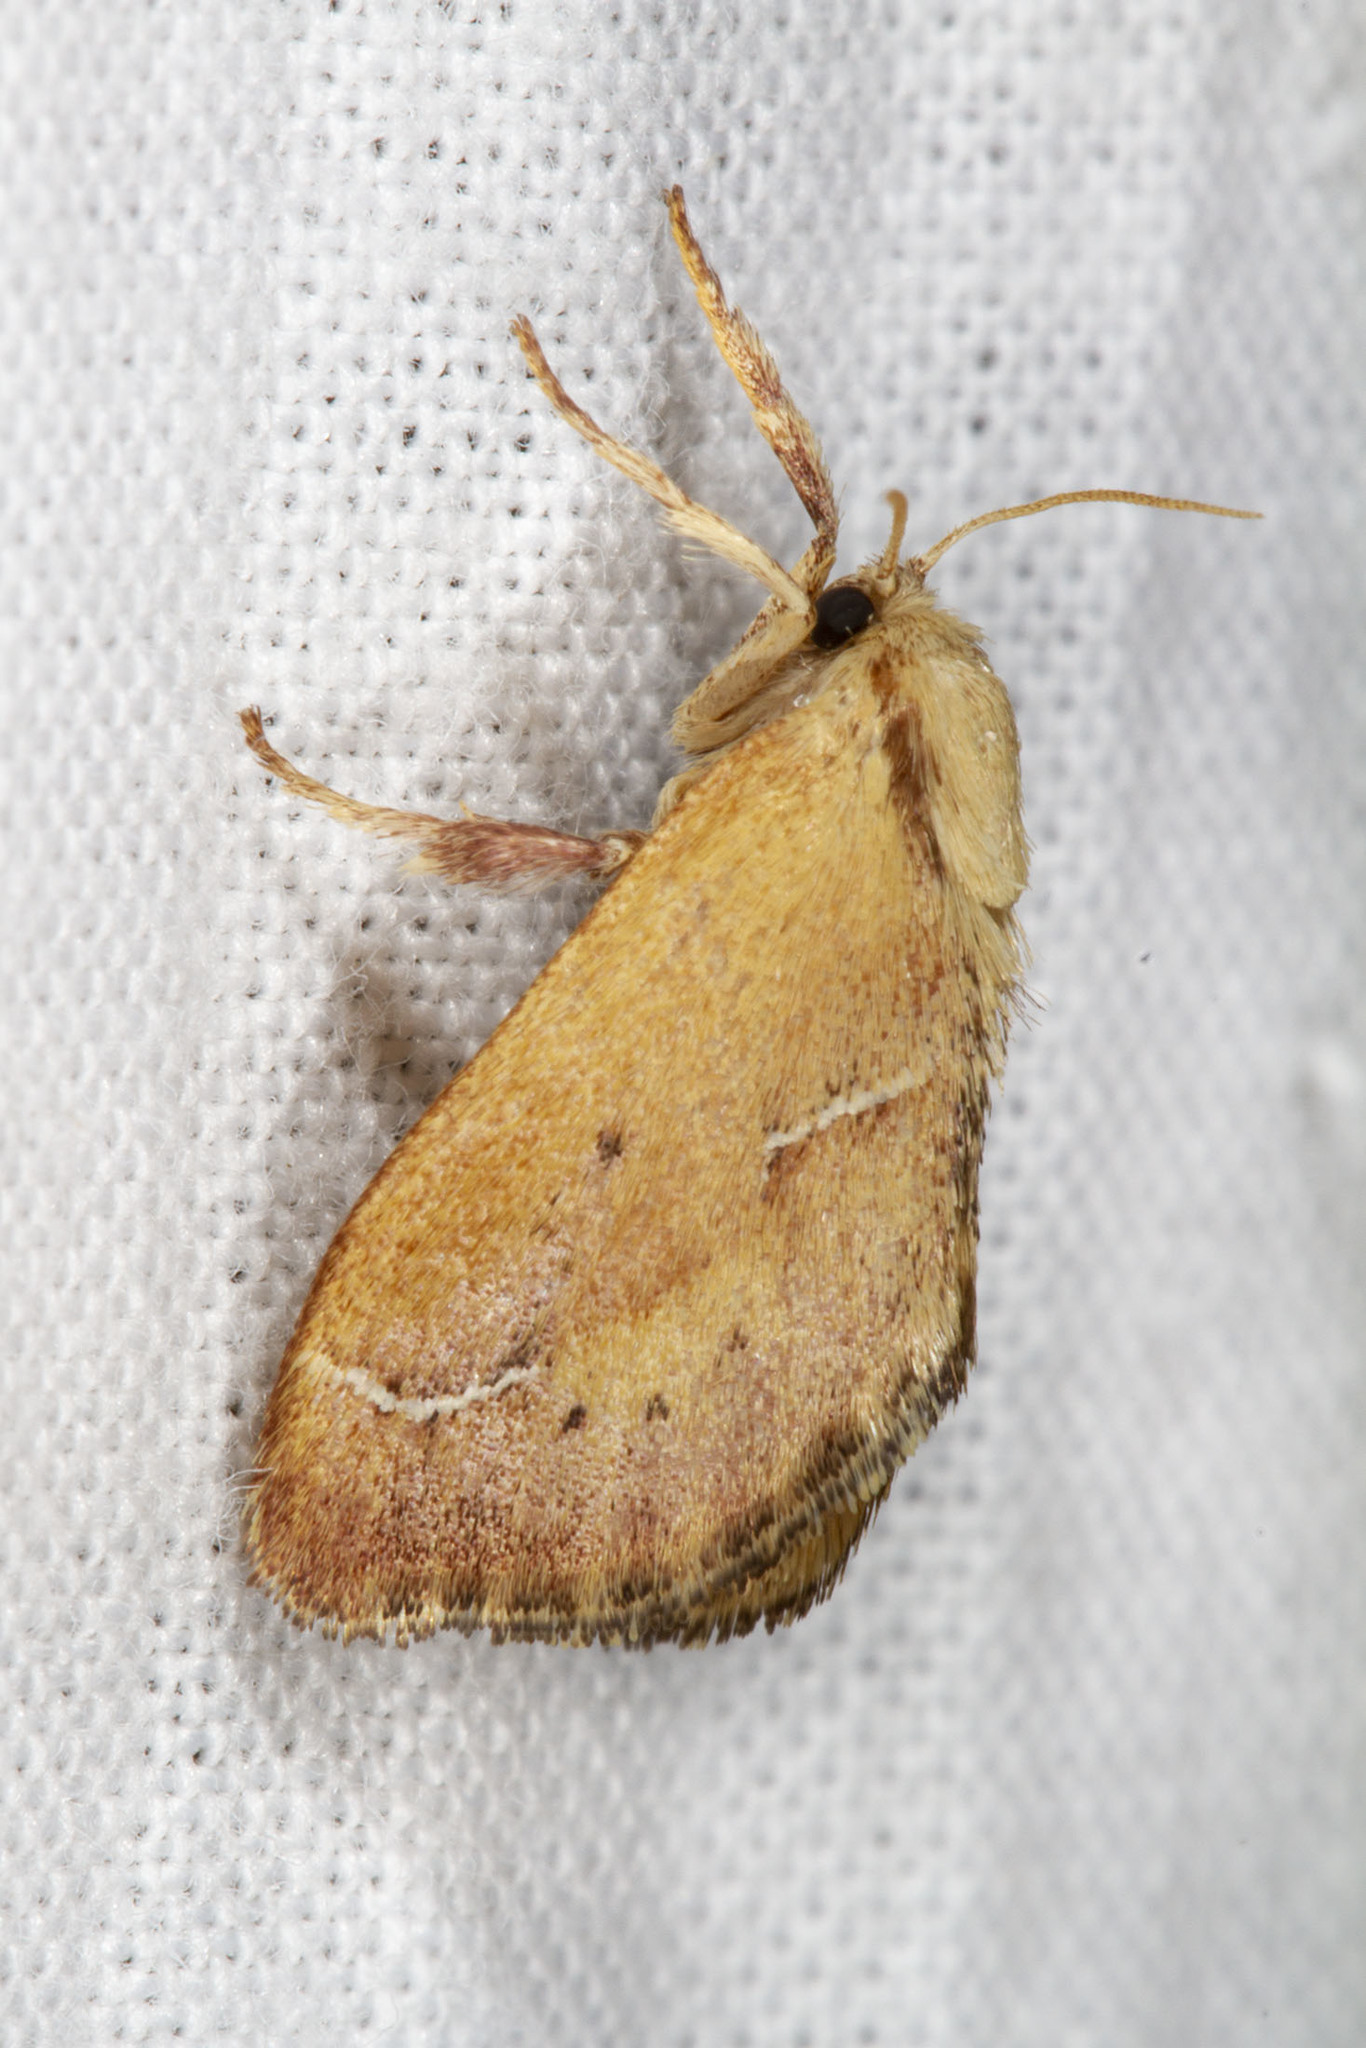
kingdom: Animalia
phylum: Arthropoda
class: Insecta
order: Lepidoptera
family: Limacodidae
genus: Adoneta
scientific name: Adoneta bicaudata
